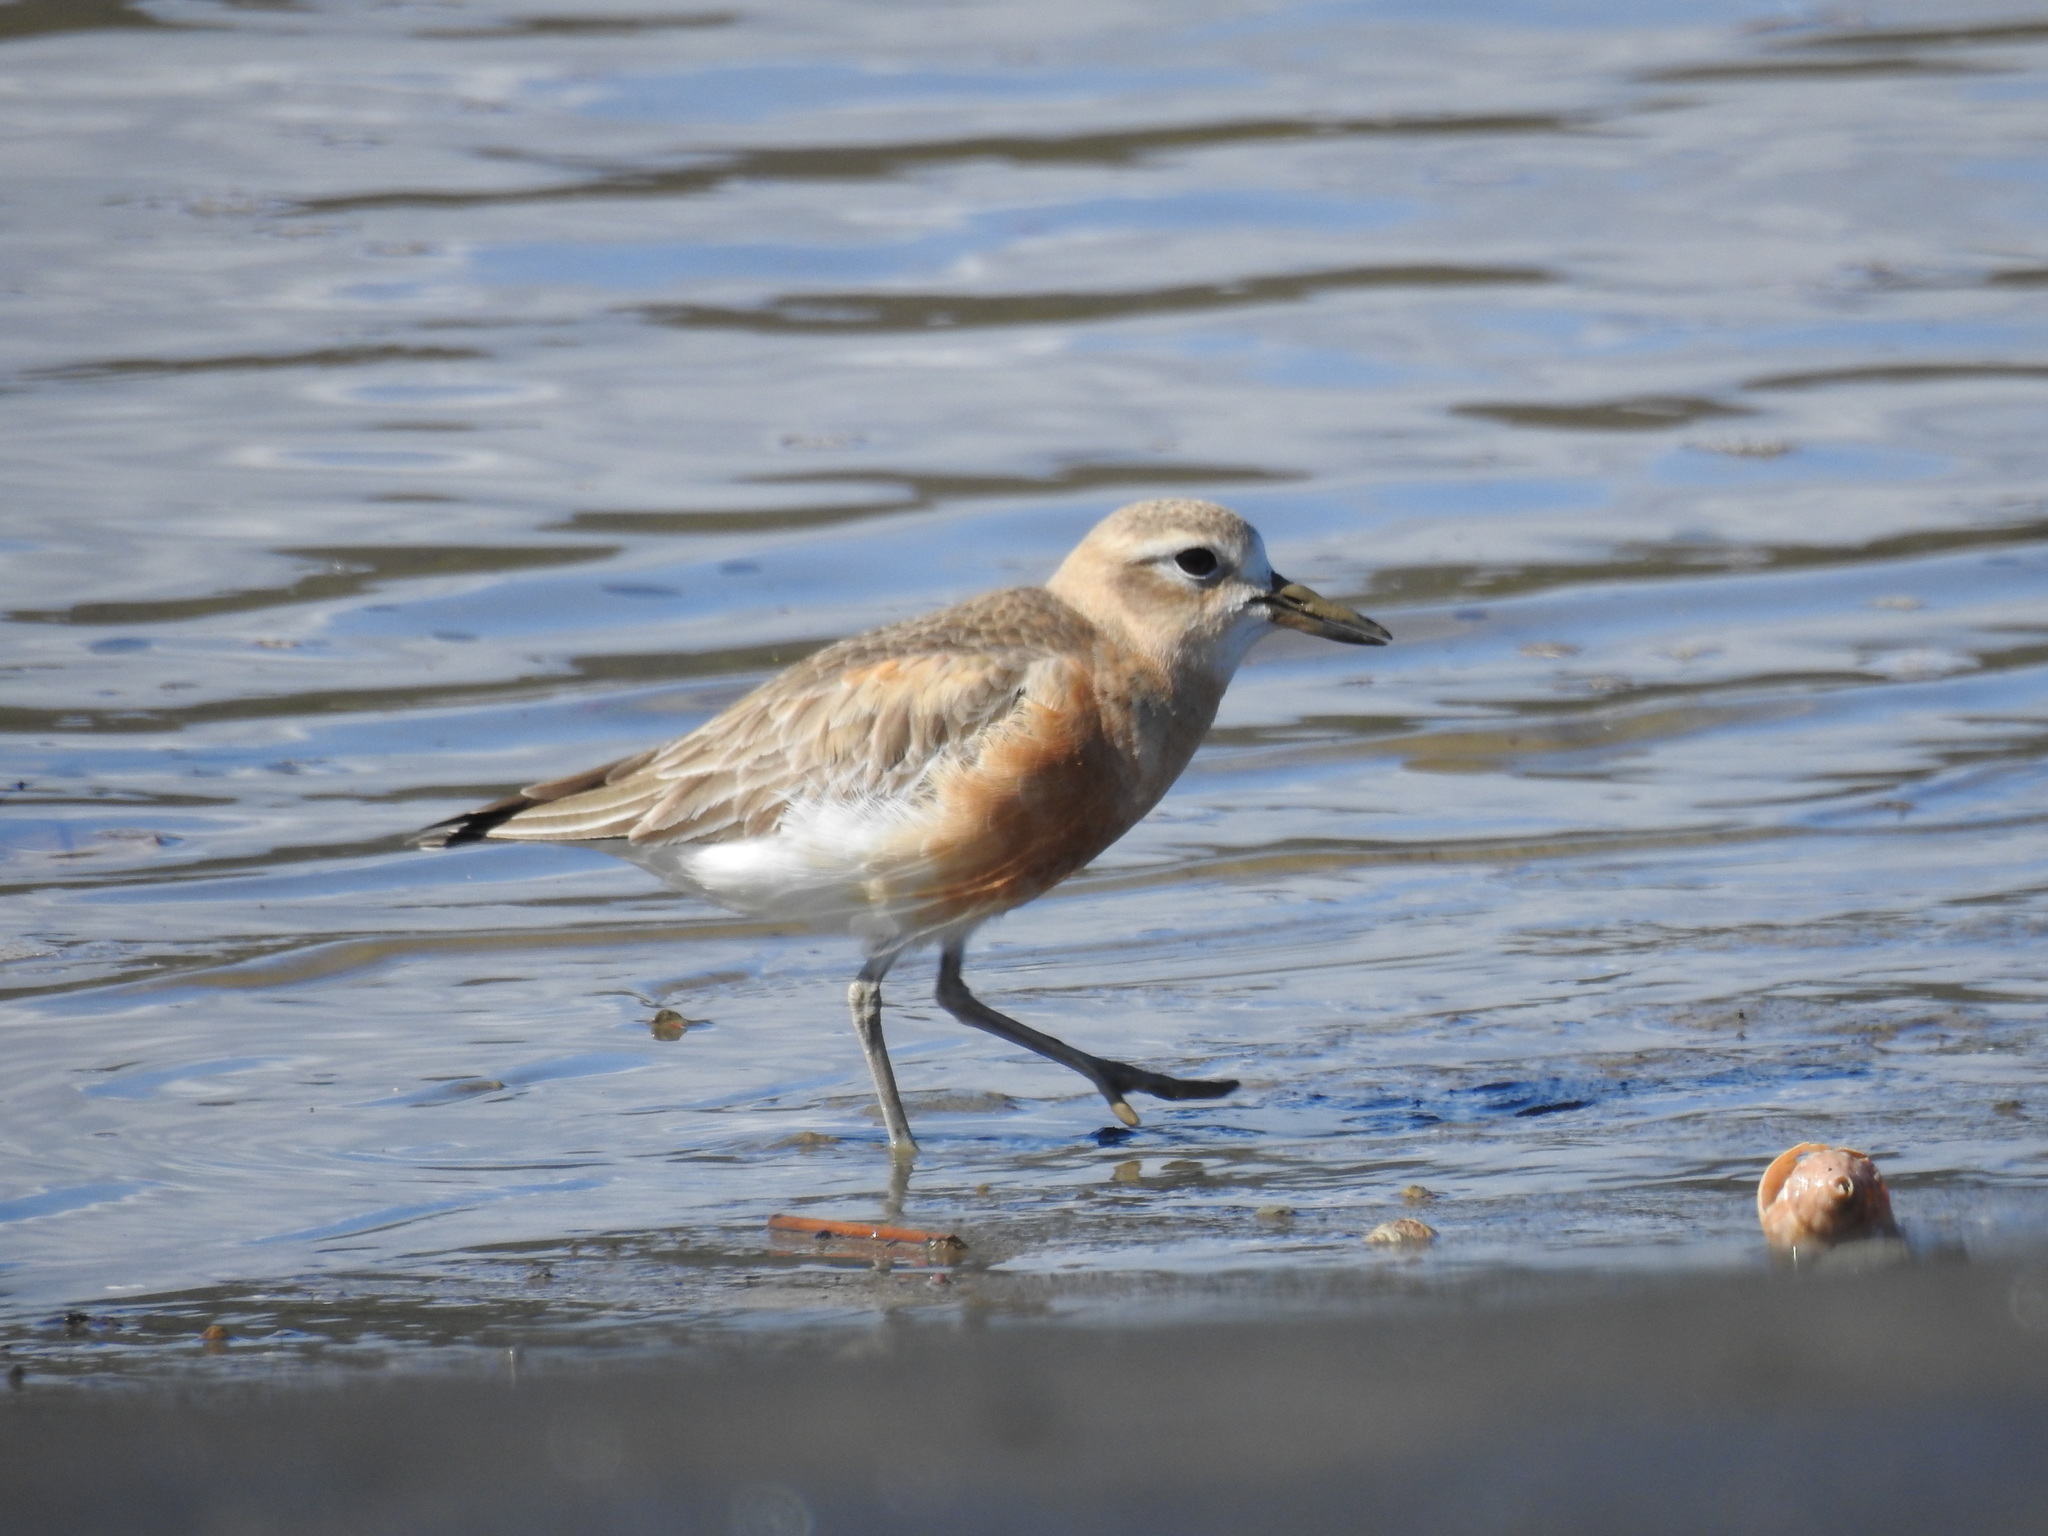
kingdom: Animalia
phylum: Chordata
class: Aves
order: Charadriiformes
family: Charadriidae
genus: Anarhynchus
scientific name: Anarhynchus
